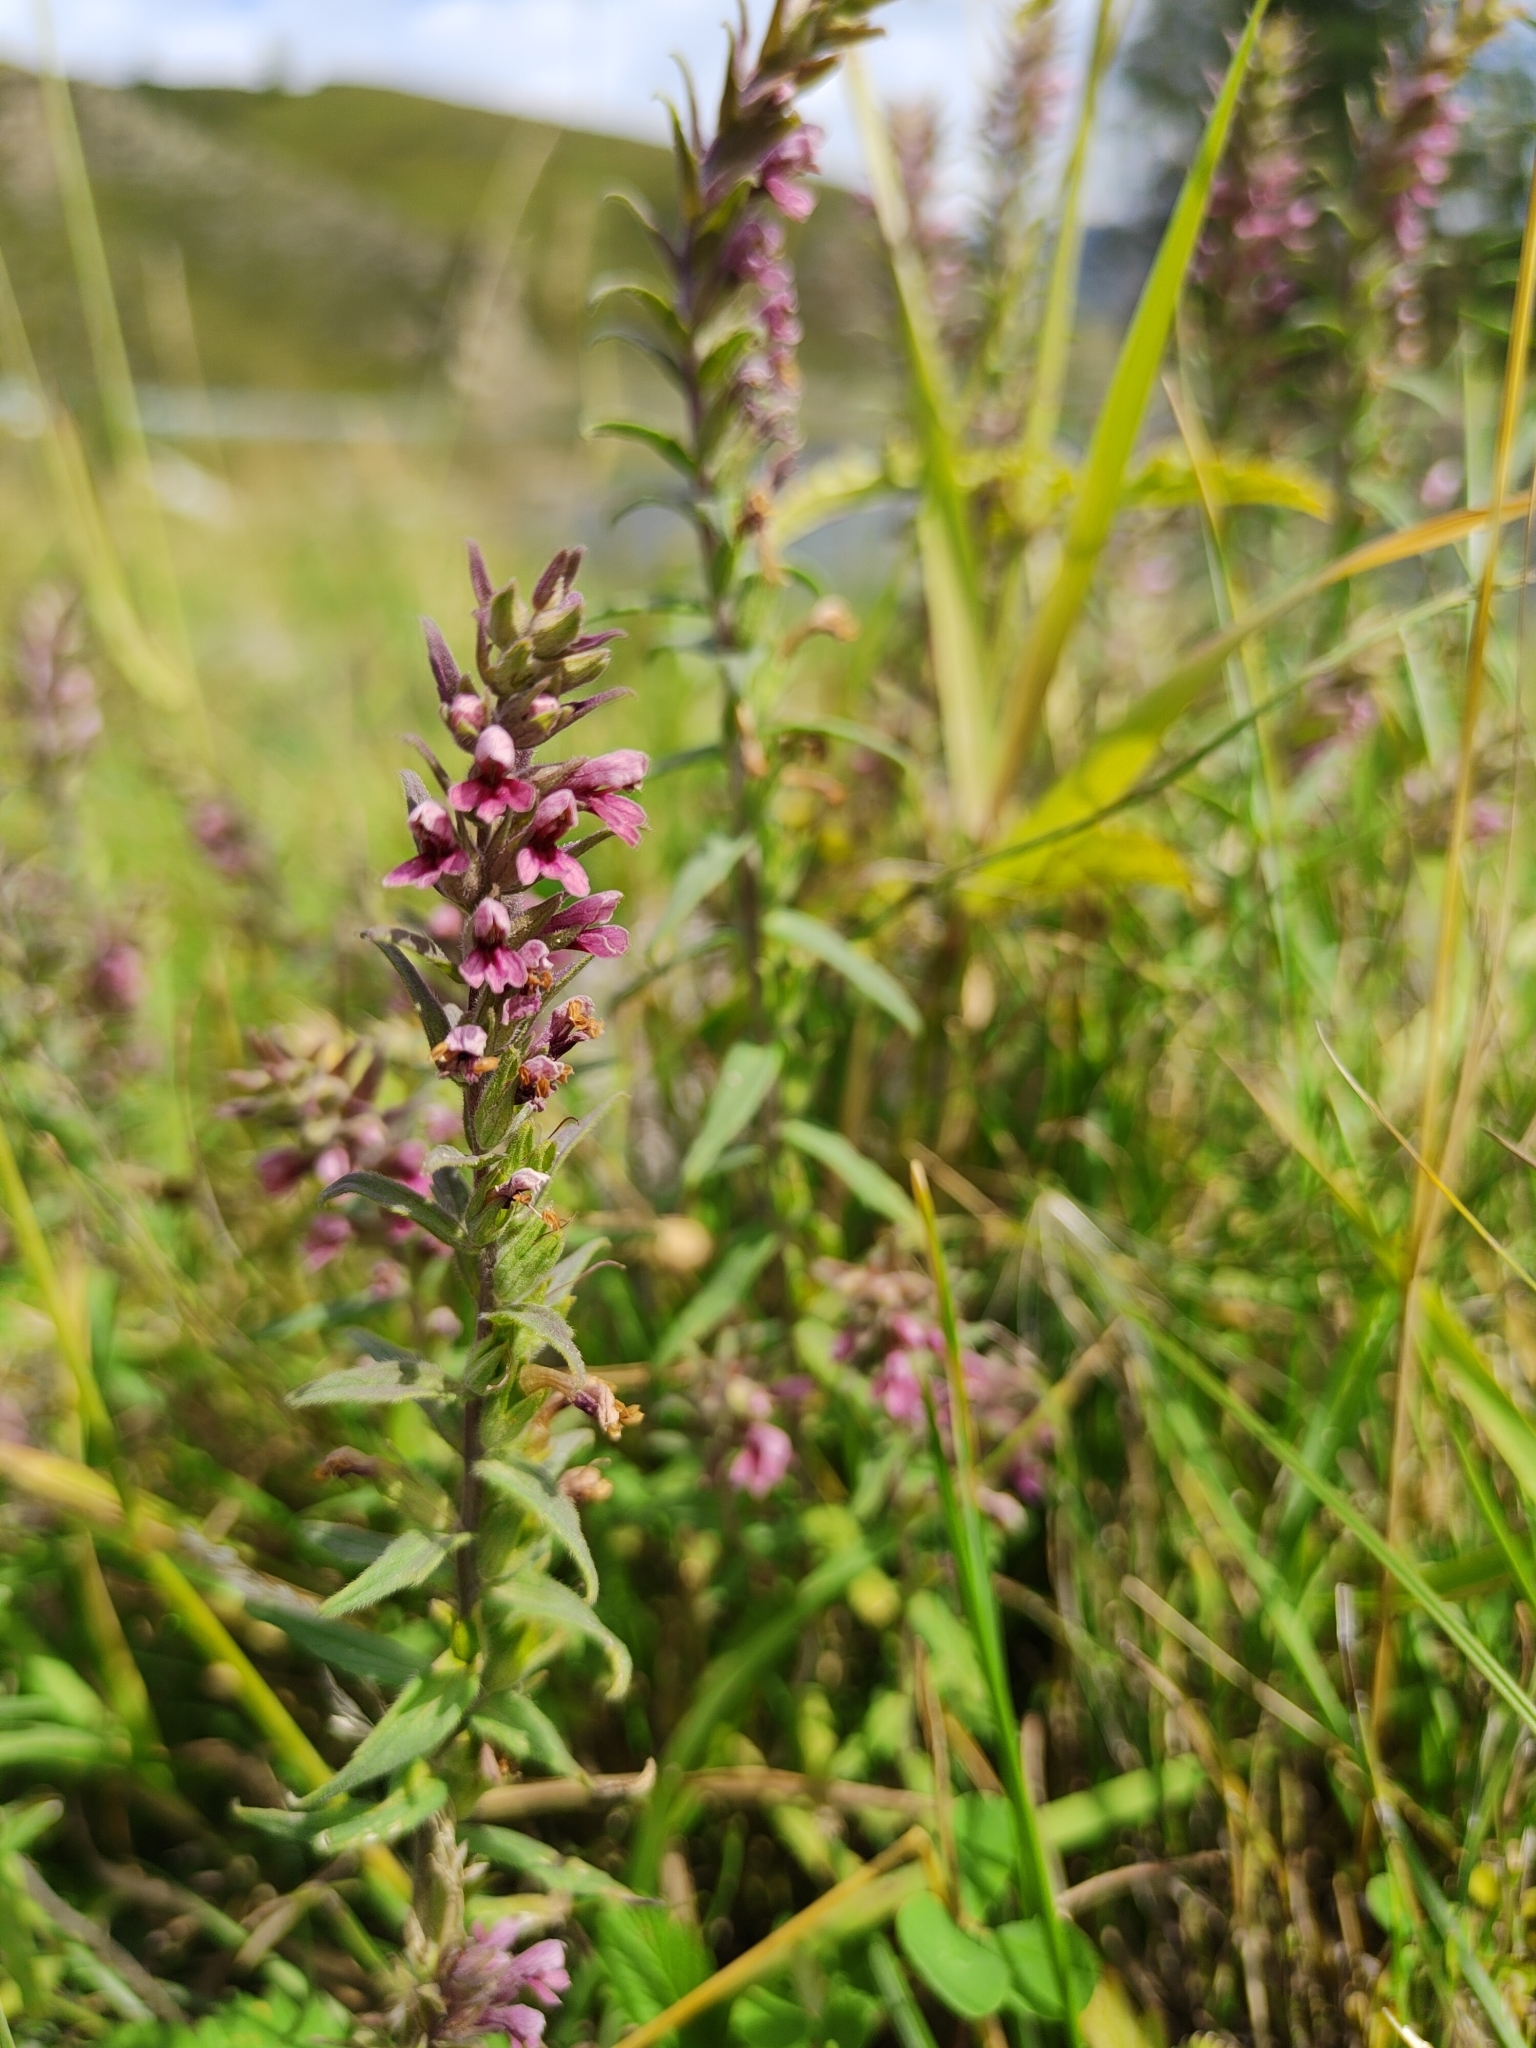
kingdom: Plantae
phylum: Tracheophyta
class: Magnoliopsida
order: Lamiales
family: Orobanchaceae
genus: Odontites
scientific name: Odontites vulgaris
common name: Broomrape
